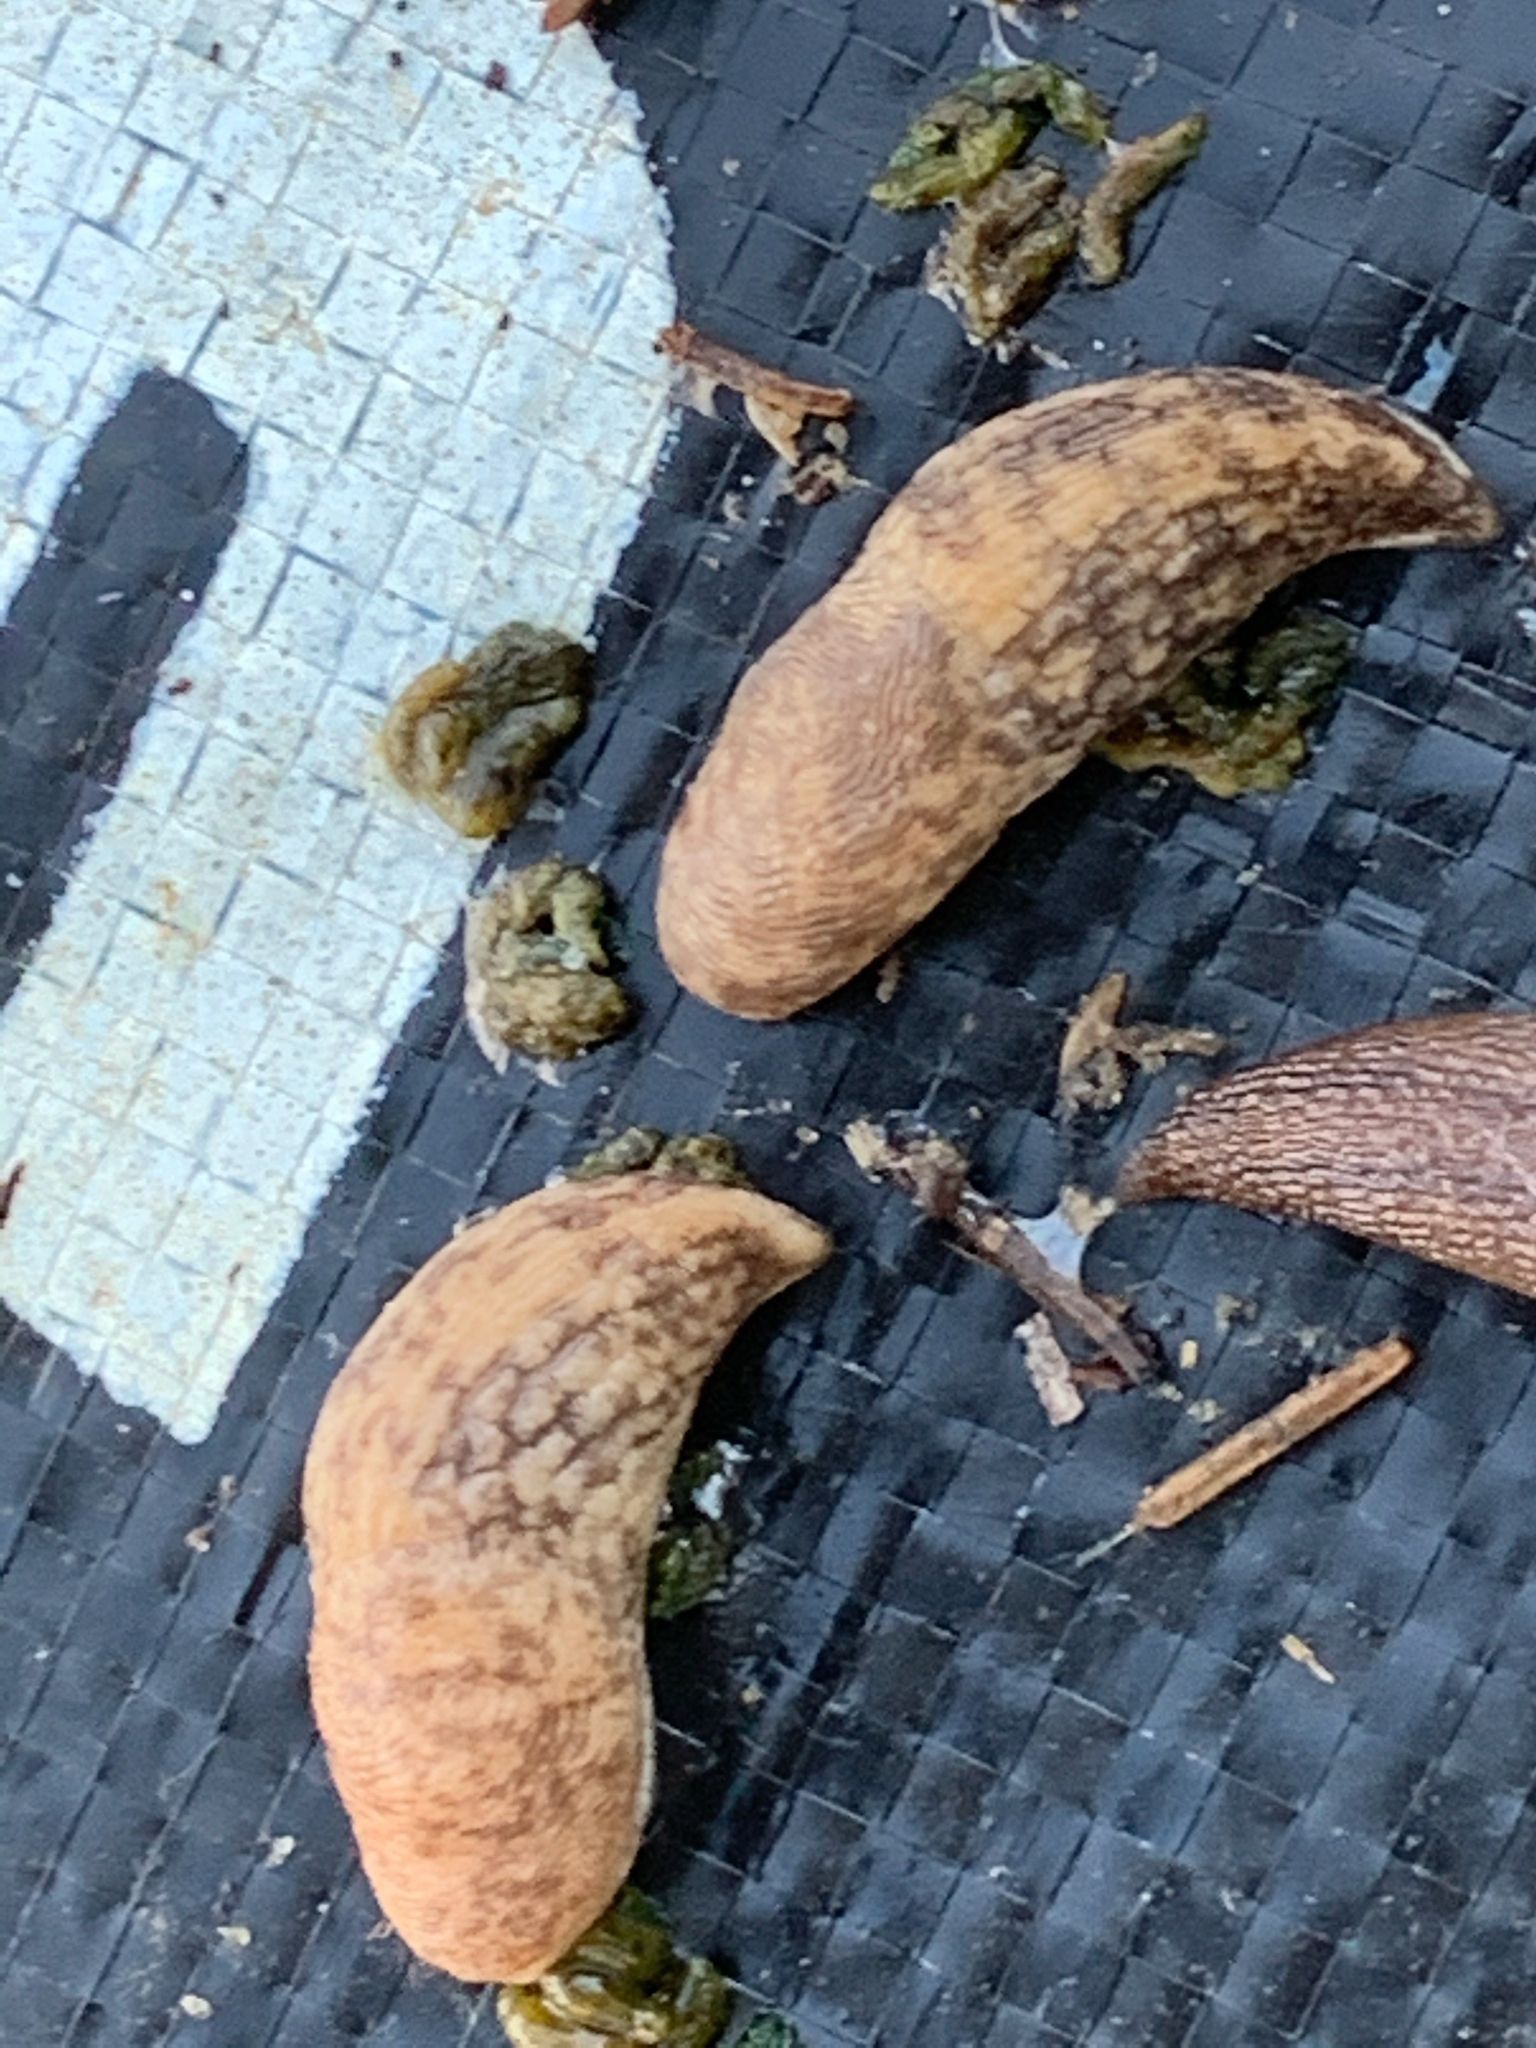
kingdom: Animalia
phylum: Mollusca
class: Gastropoda
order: Stylommatophora
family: Agriolimacidae
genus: Deroceras
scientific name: Deroceras reticulatum
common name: Gray field slug
